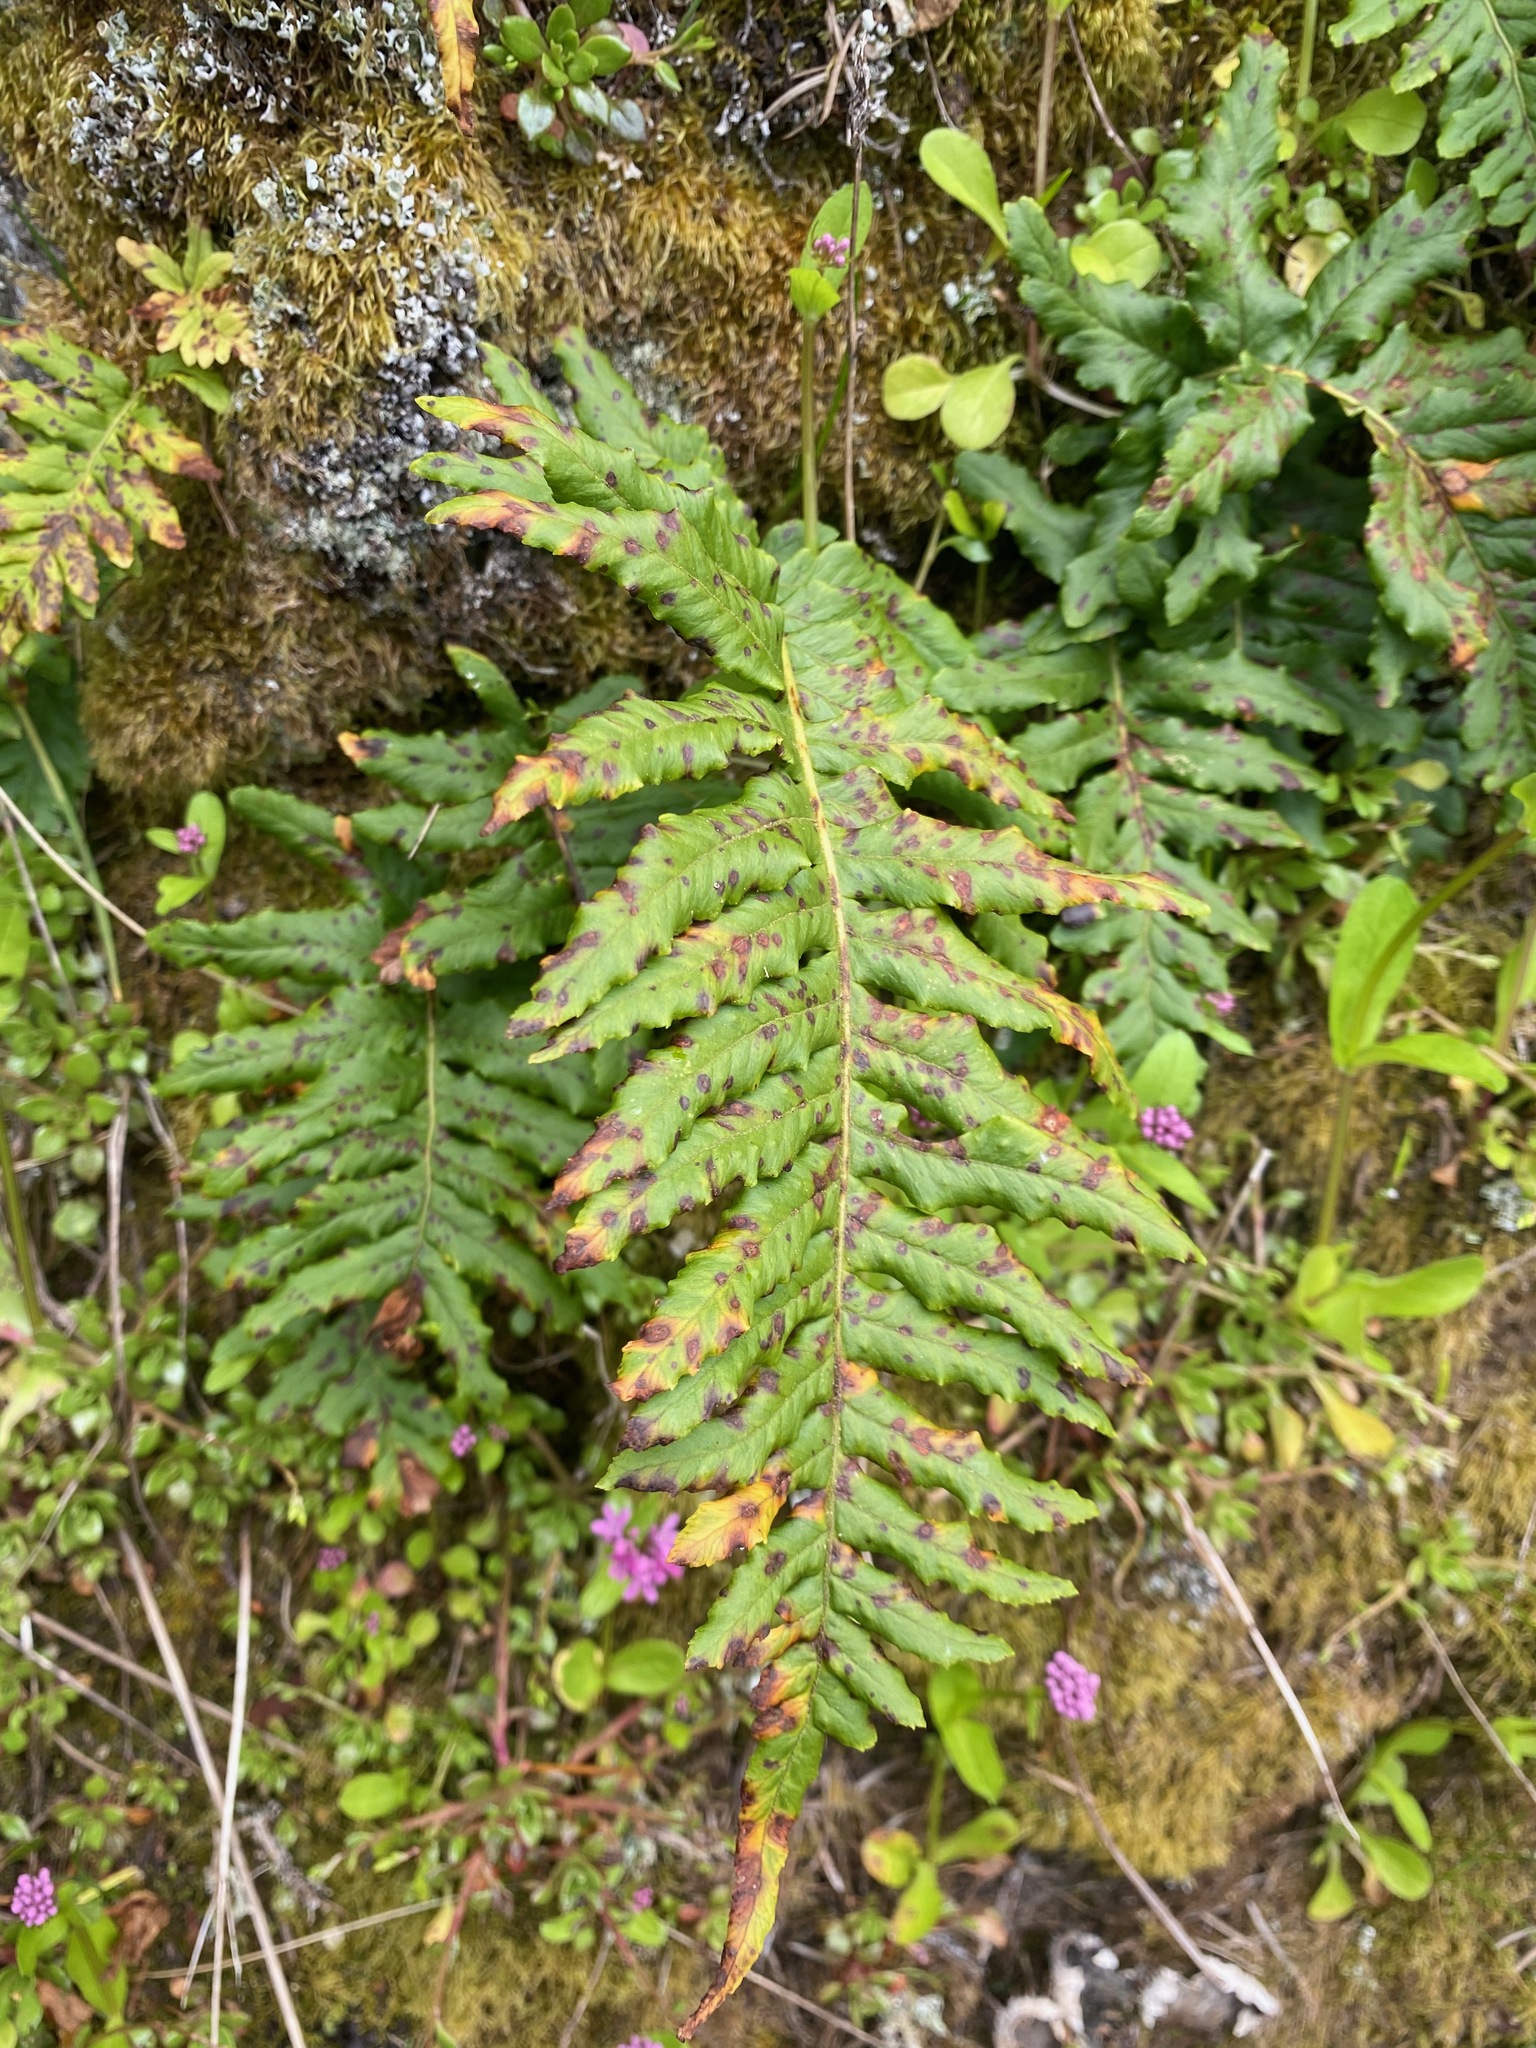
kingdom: Plantae
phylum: Tracheophyta
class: Polypodiopsida
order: Polypodiales
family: Polypodiaceae
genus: Polypodium
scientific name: Polypodium glycyrrhiza
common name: Licorice fern
